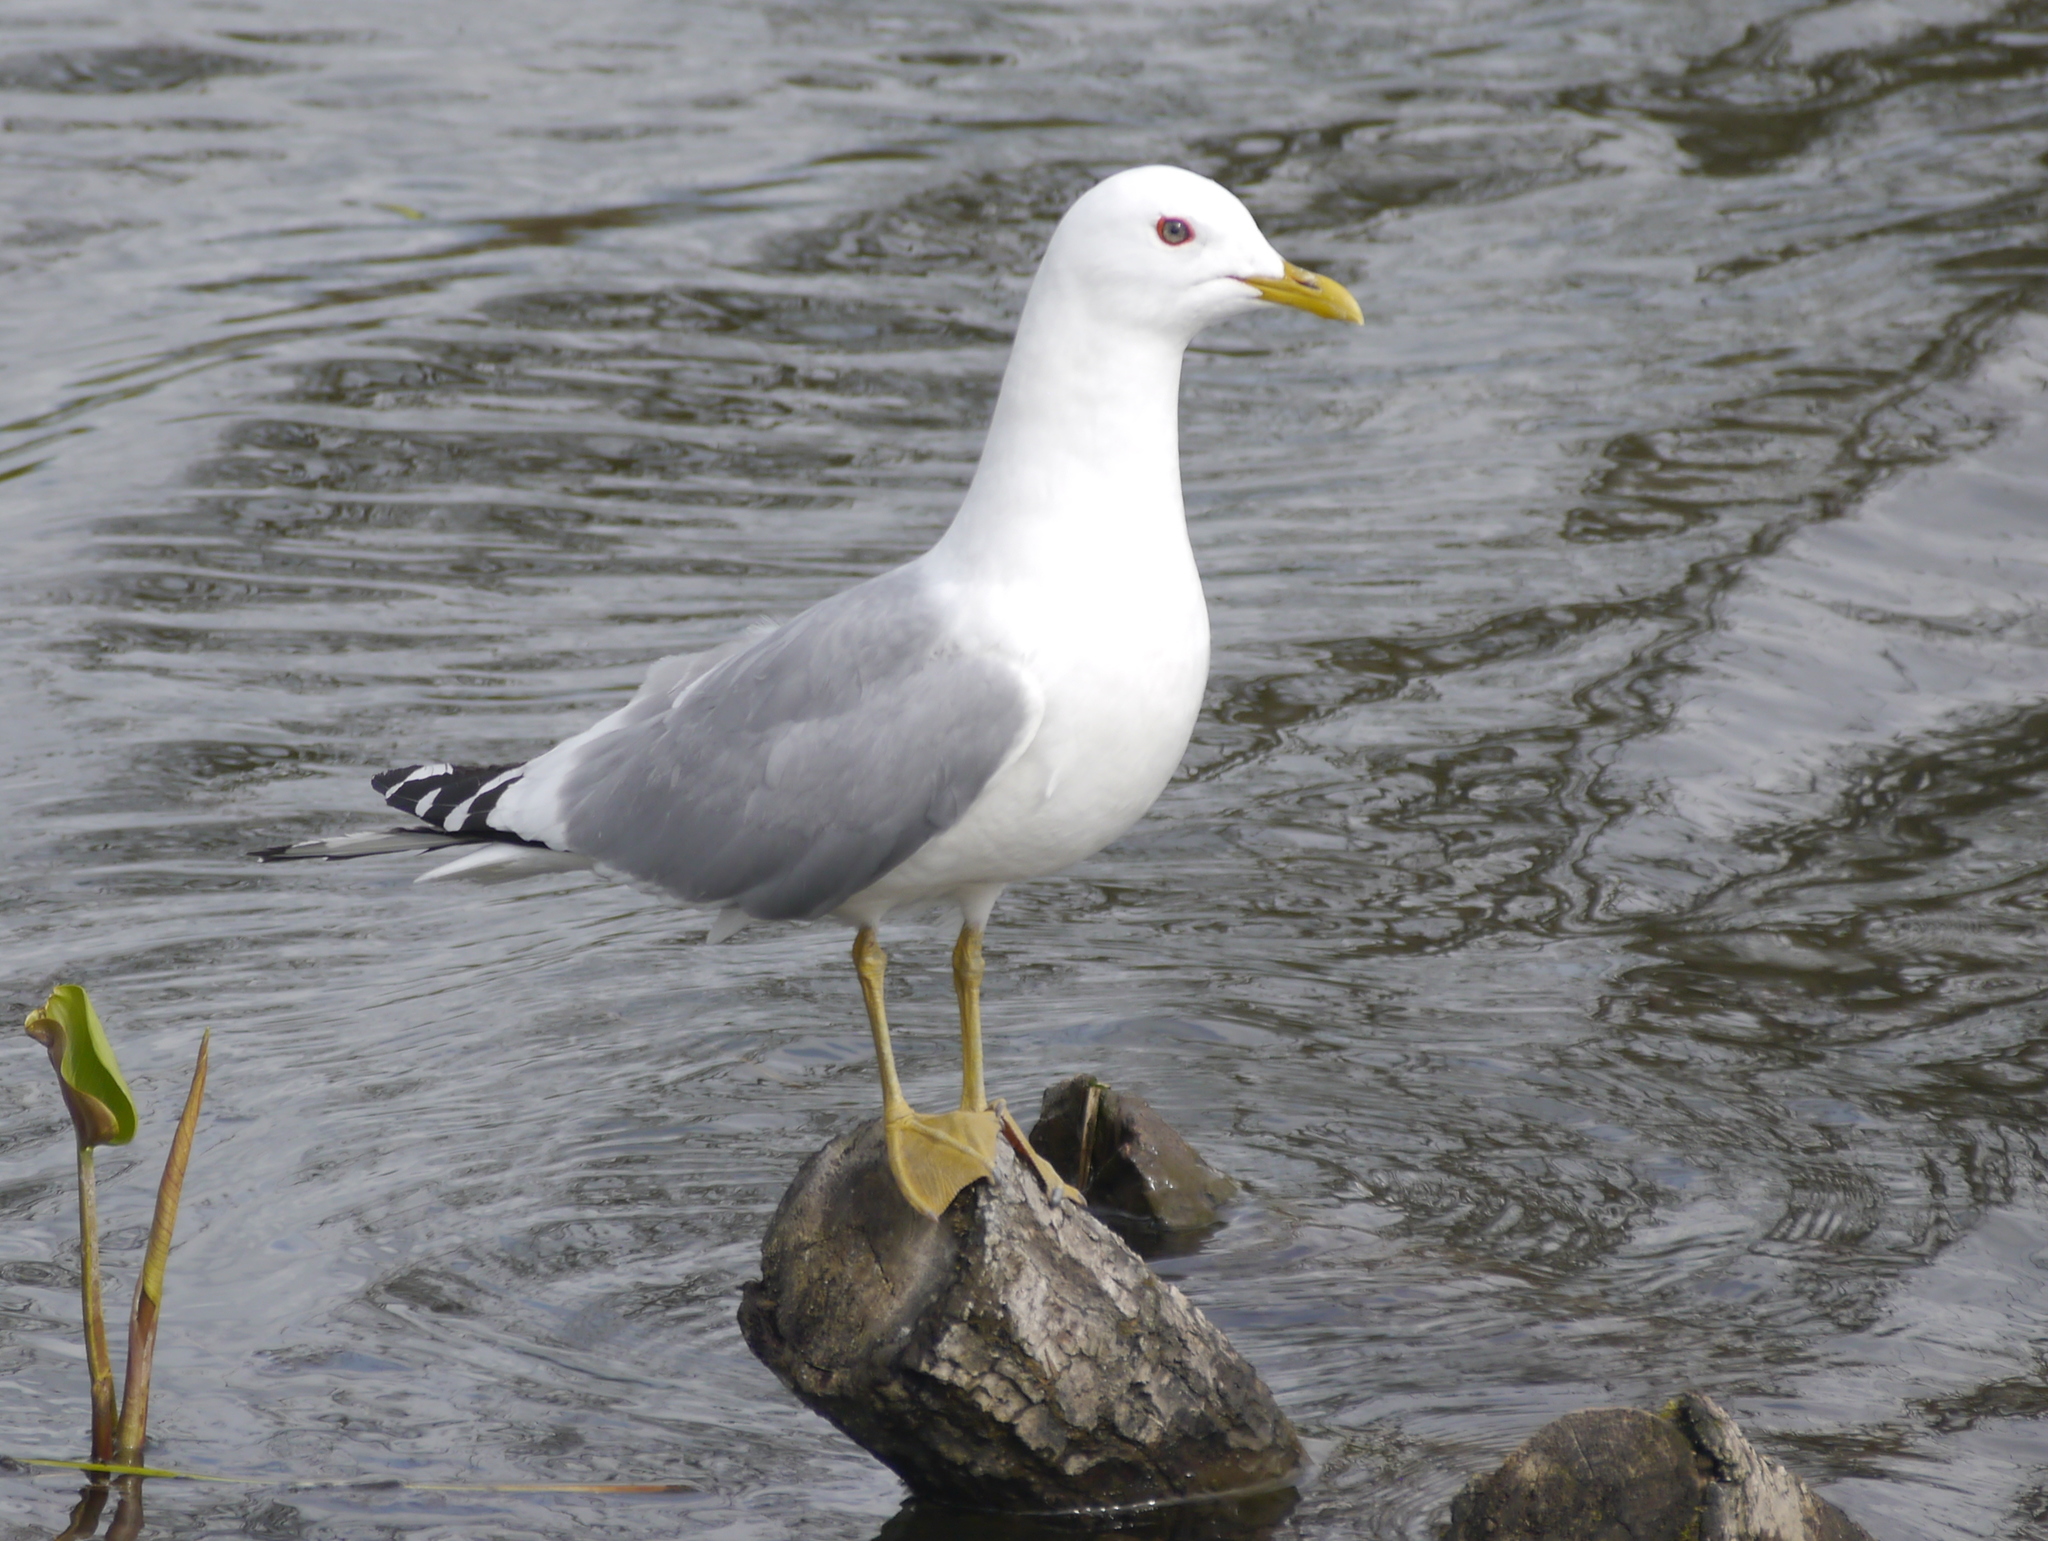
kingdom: Animalia
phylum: Chordata
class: Aves
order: Charadriiformes
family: Laridae
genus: Larus
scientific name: Larus brachyrhynchus
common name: Short-billed gull
